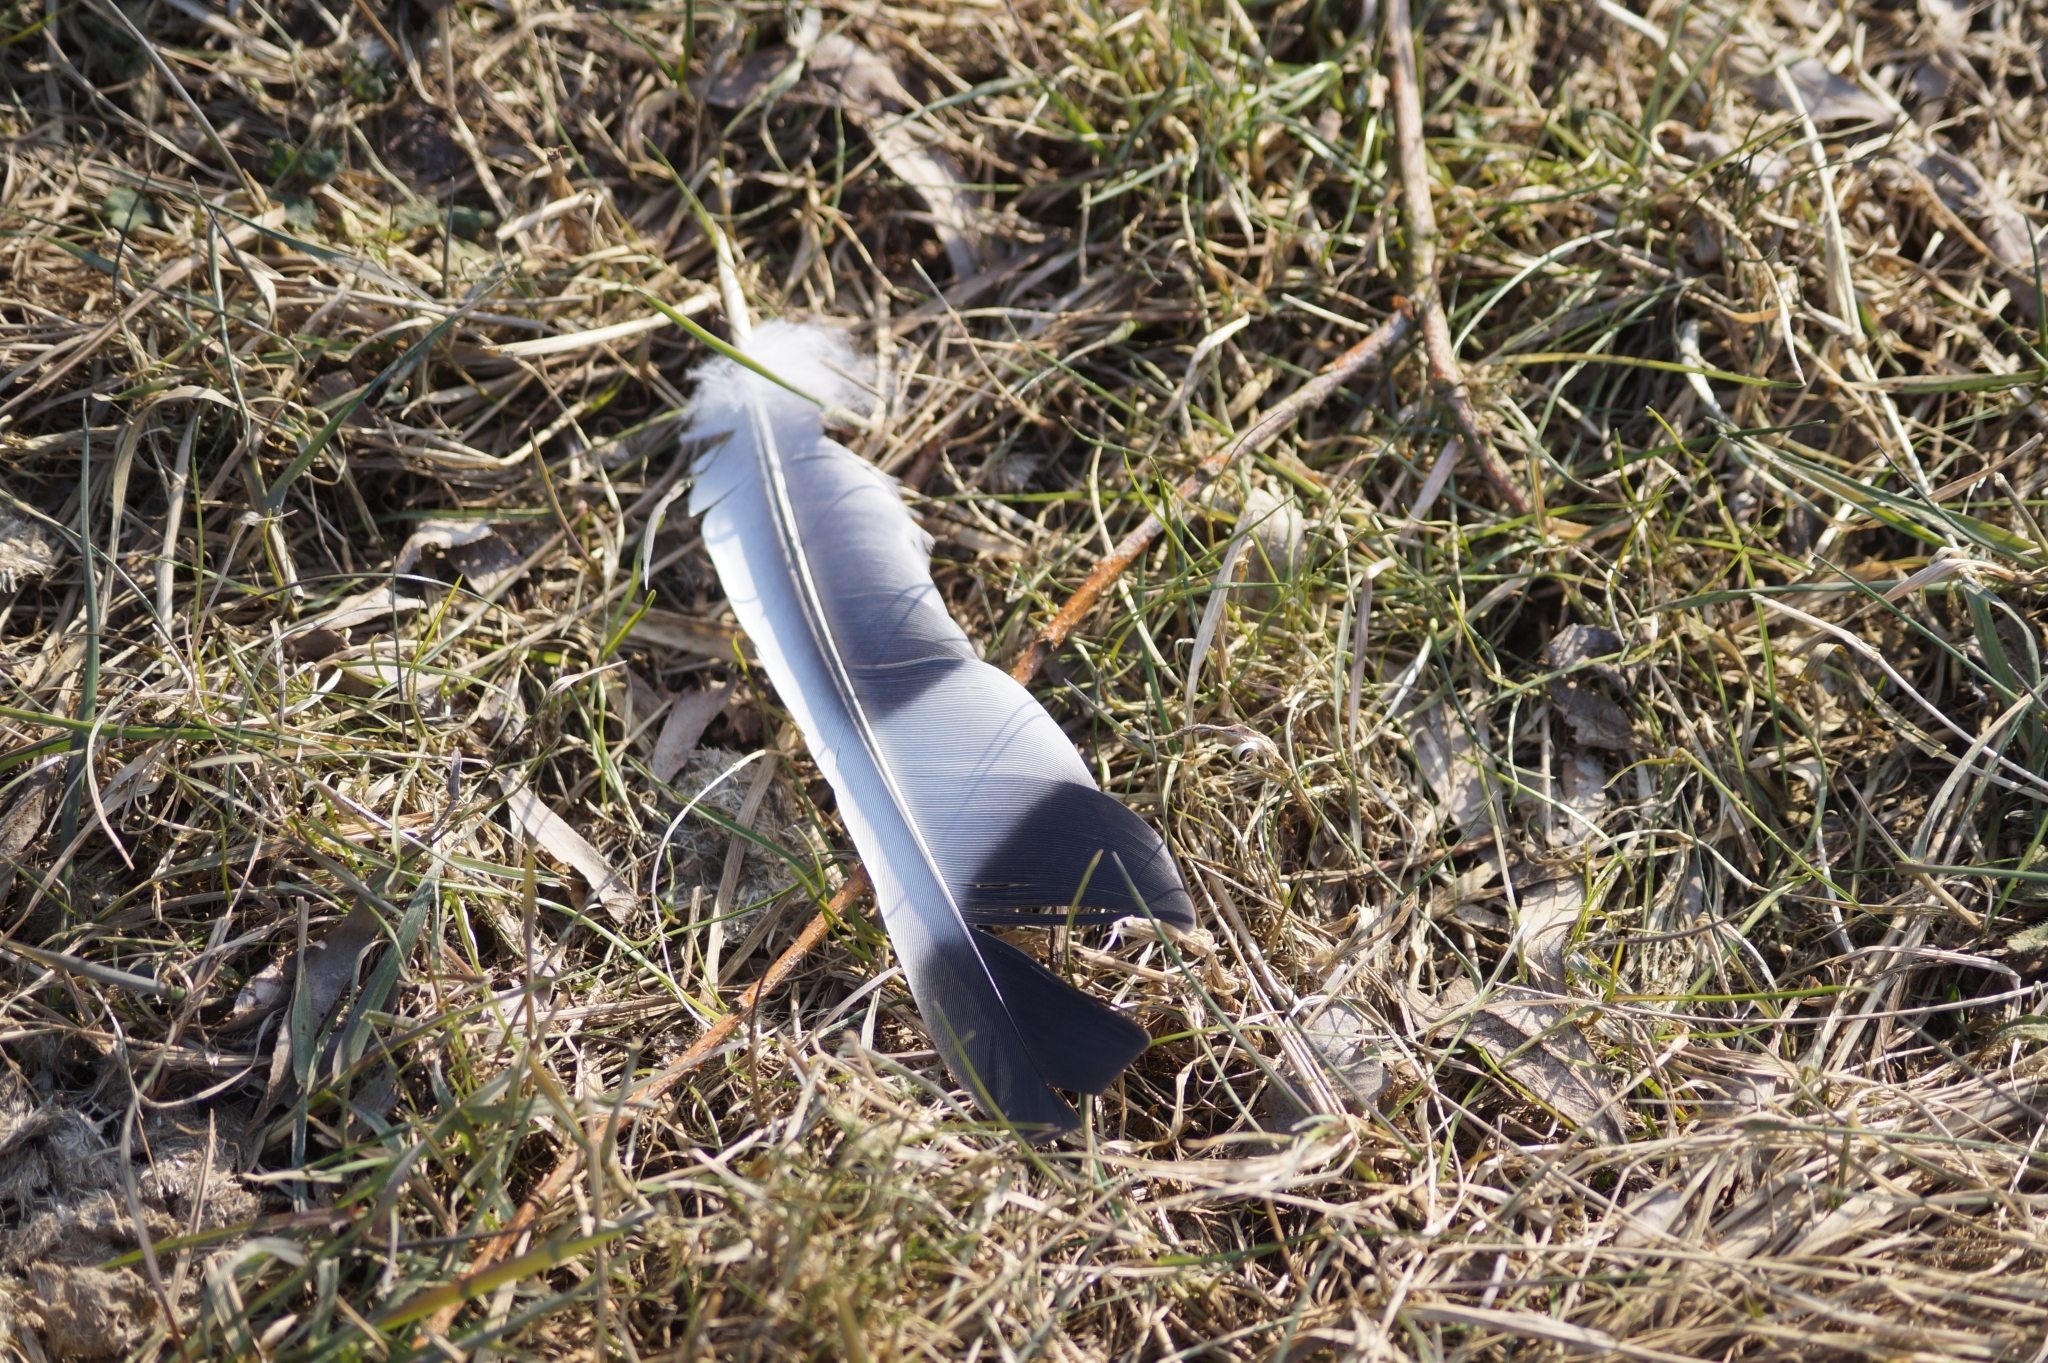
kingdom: Animalia
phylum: Chordata
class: Aves
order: Columbiformes
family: Columbidae
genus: Columba
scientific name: Columba palumbus
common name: Common wood pigeon
